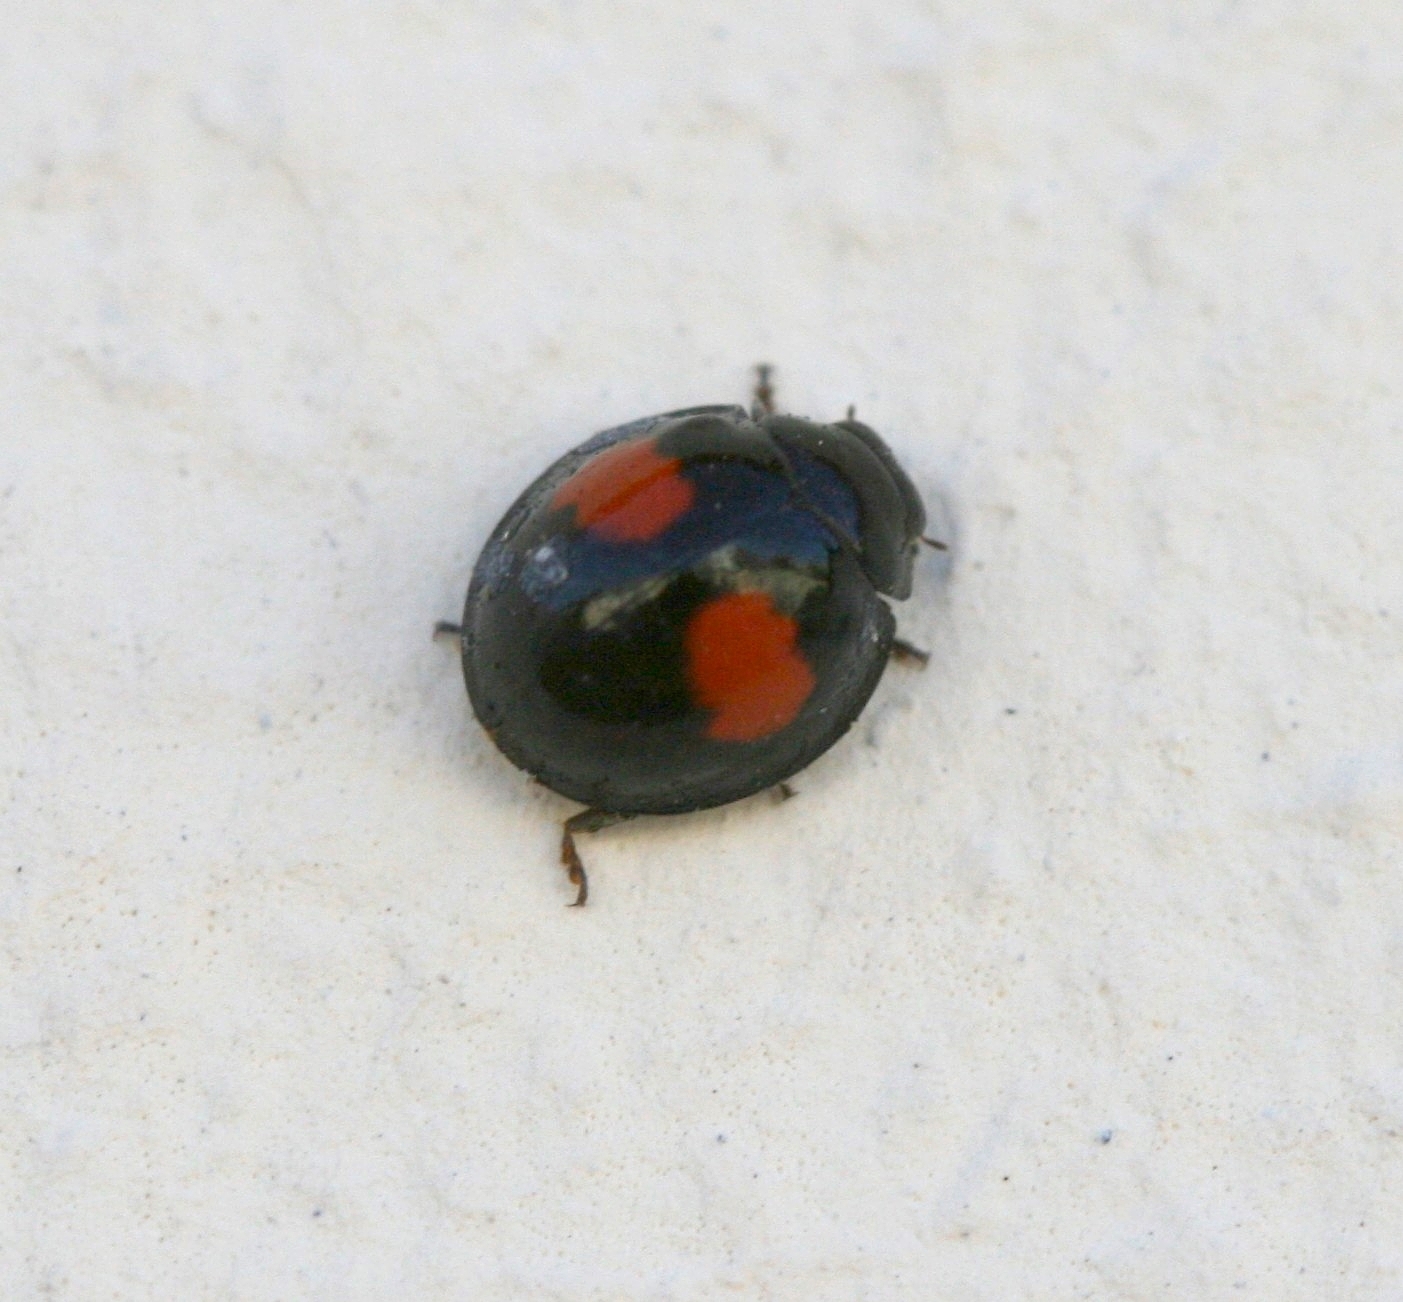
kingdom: Animalia
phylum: Arthropoda
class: Insecta
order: Coleoptera
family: Coccinellidae
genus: Chilocorus
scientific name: Chilocorus canariensis
